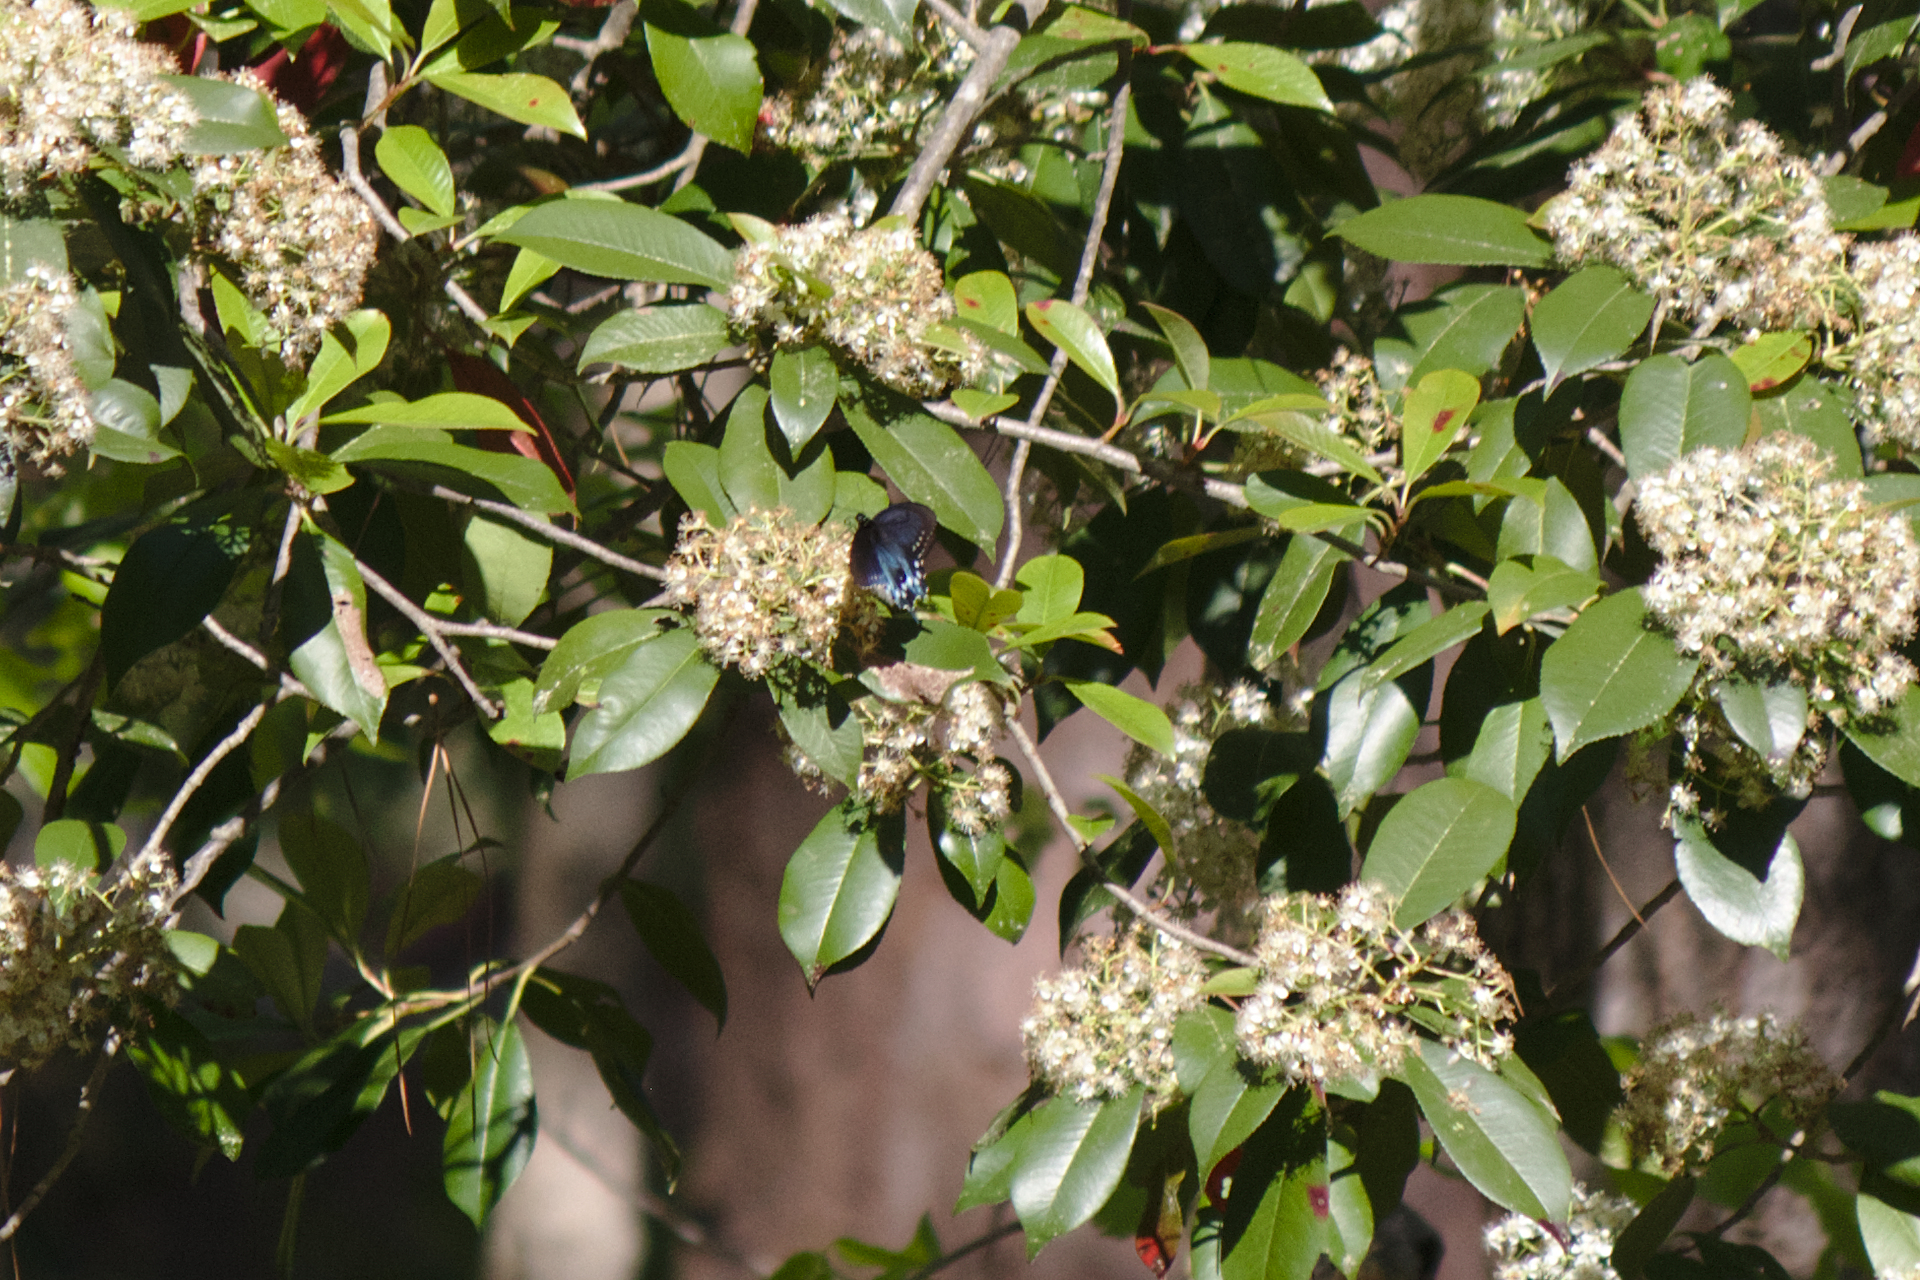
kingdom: Animalia
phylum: Arthropoda
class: Insecta
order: Lepidoptera
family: Papilionidae
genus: Battus
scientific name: Battus philenor
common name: Pipevine swallowtail
